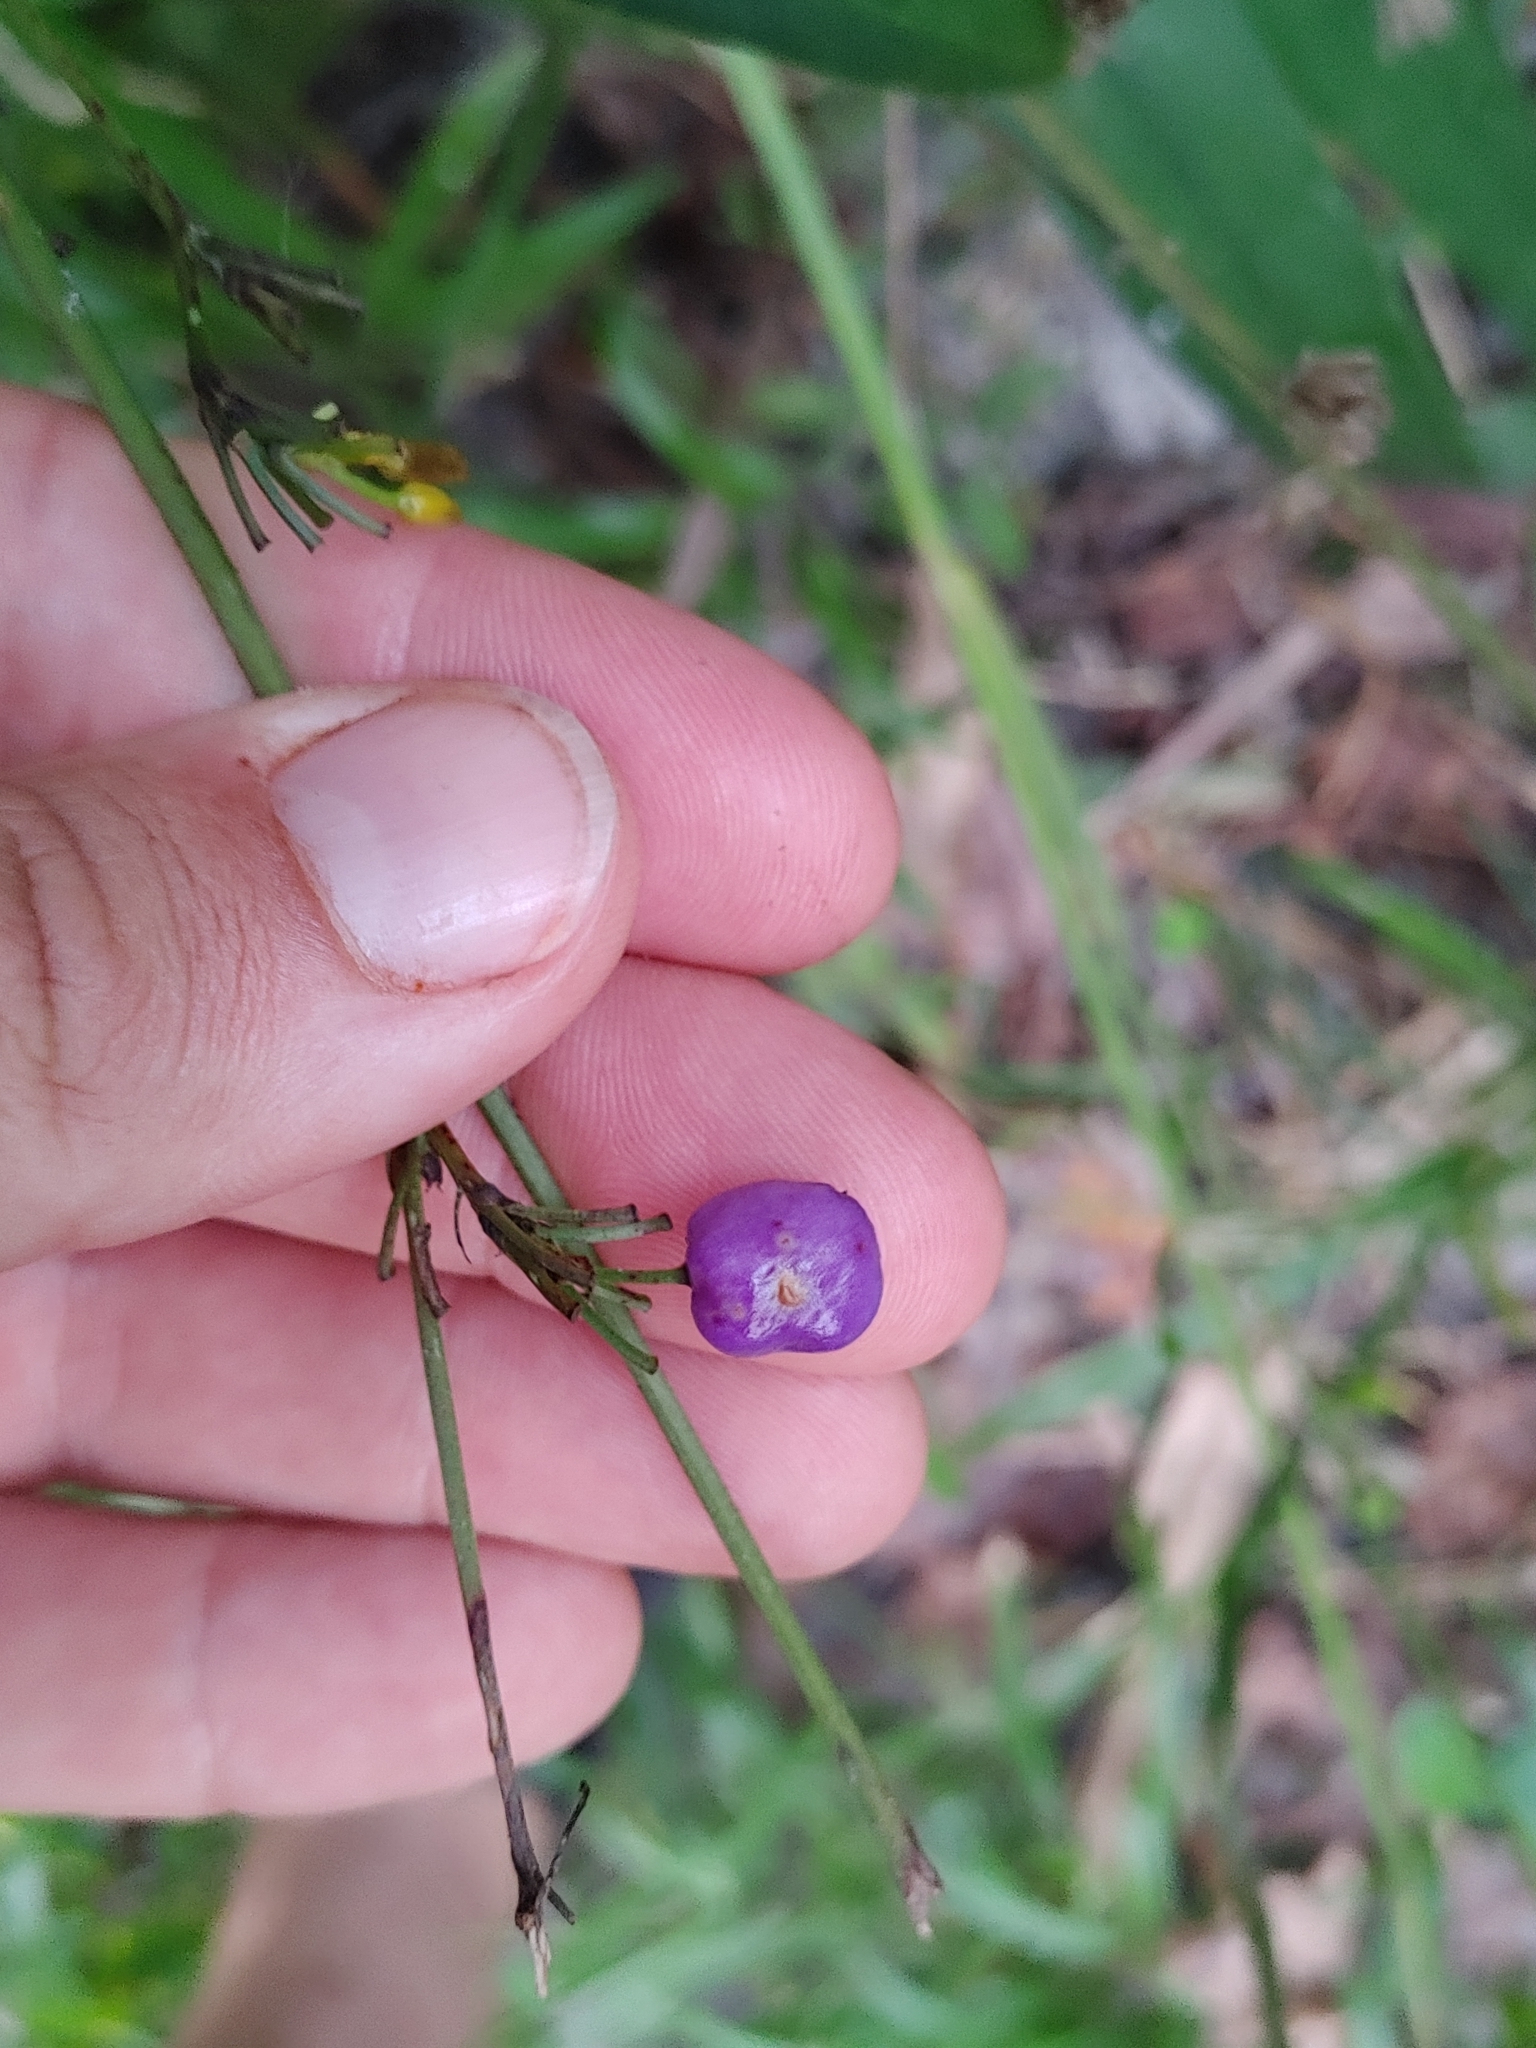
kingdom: Plantae
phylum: Tracheophyta
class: Liliopsida
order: Asparagales
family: Asphodelaceae
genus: Dianella
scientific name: Dianella ensifolia
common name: New zealand lilyplant
